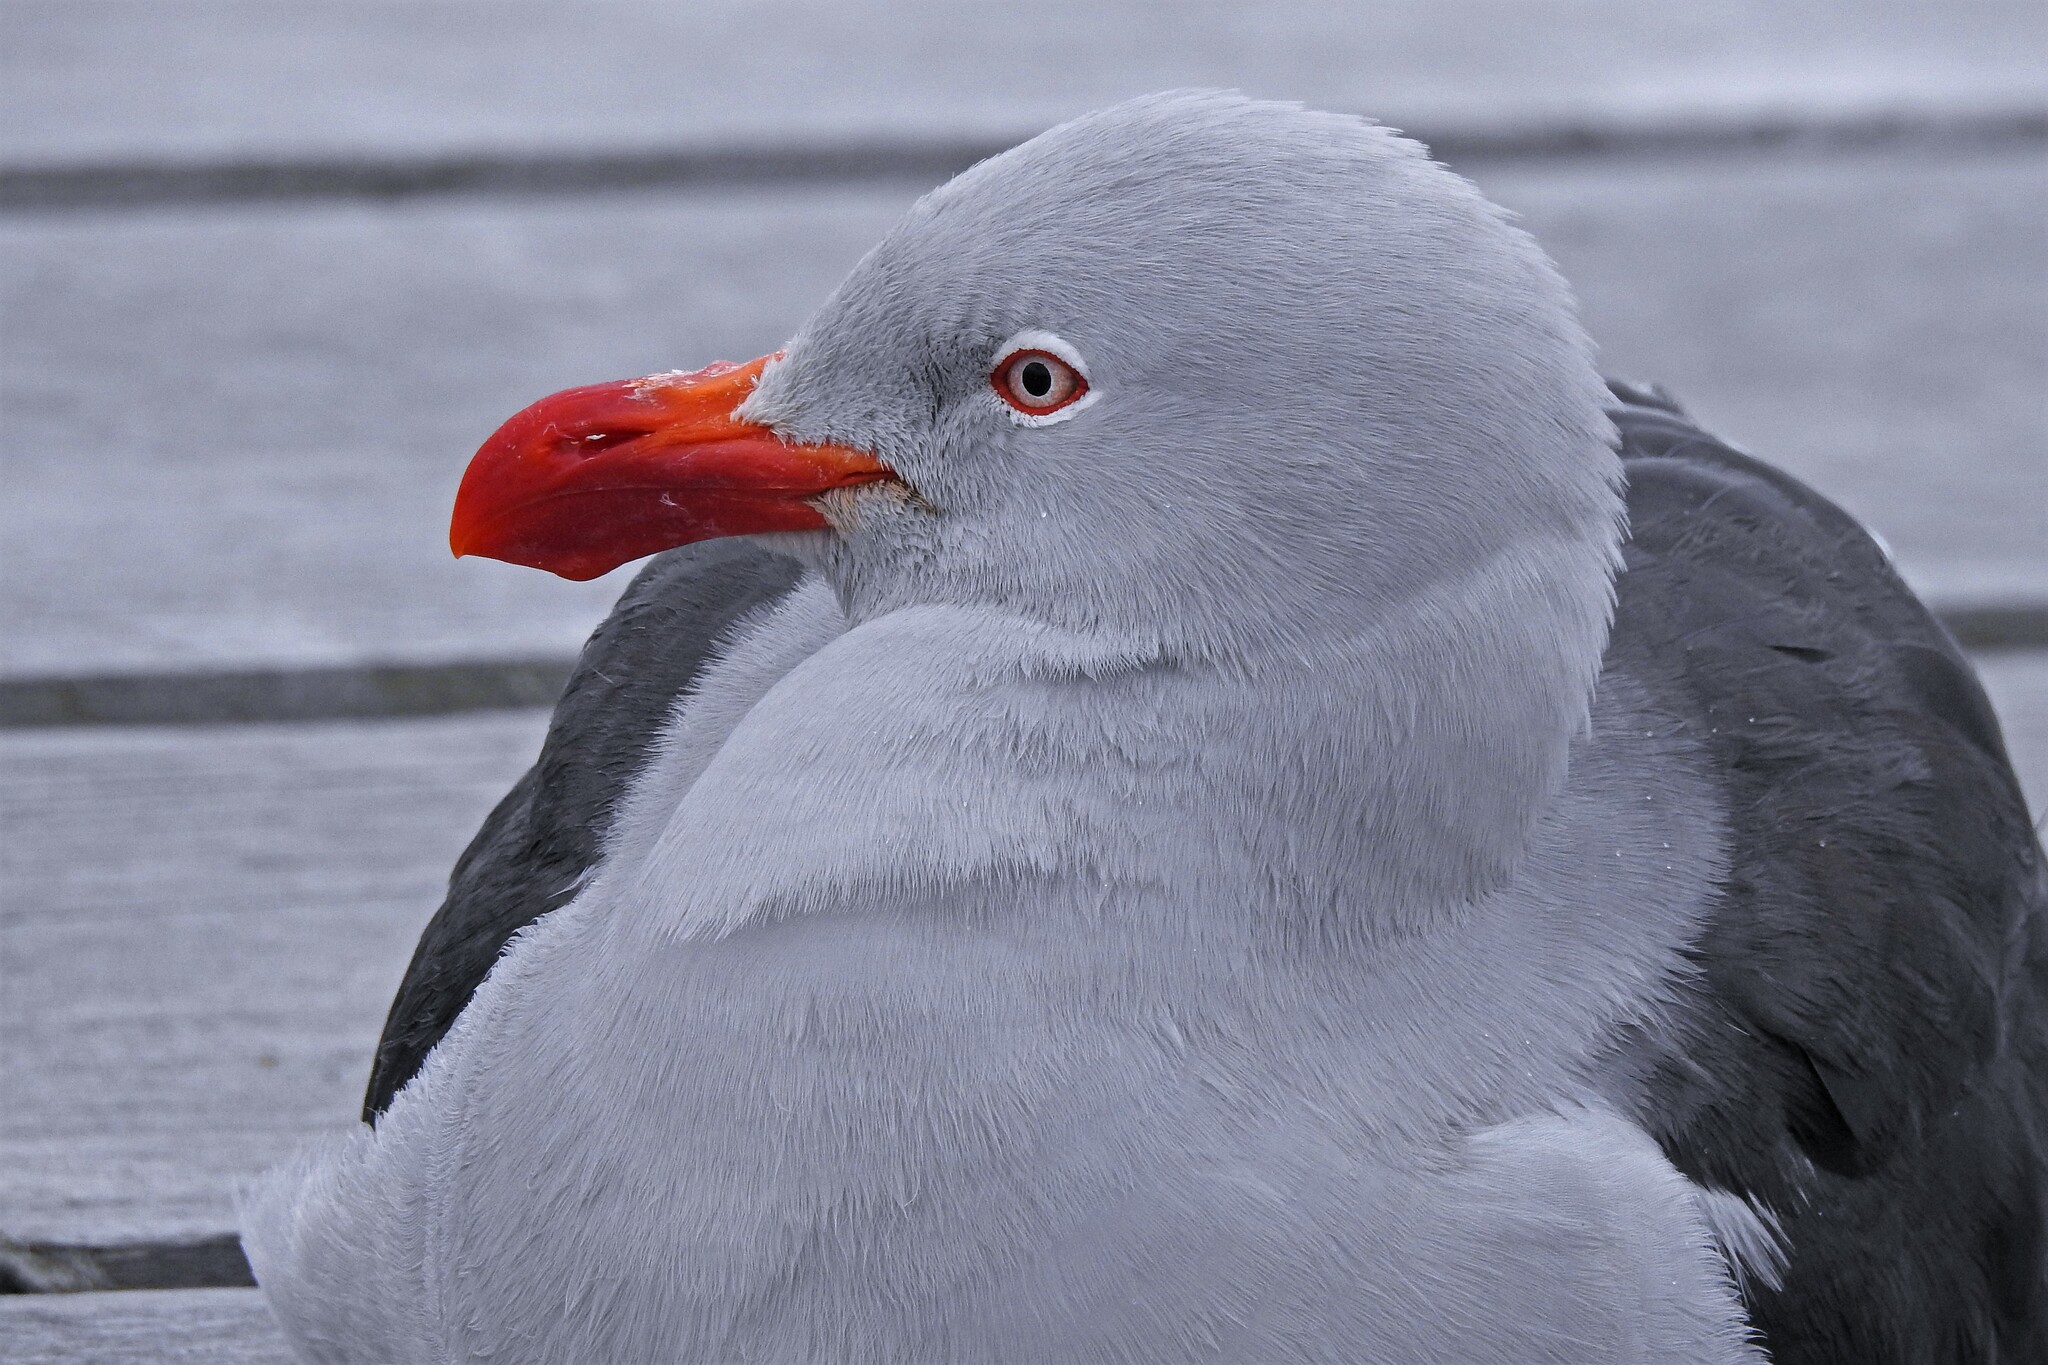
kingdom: Animalia
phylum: Chordata
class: Aves
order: Charadriiformes
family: Laridae
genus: Leucophaeus
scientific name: Leucophaeus scoresbii
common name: Dolphin gull
